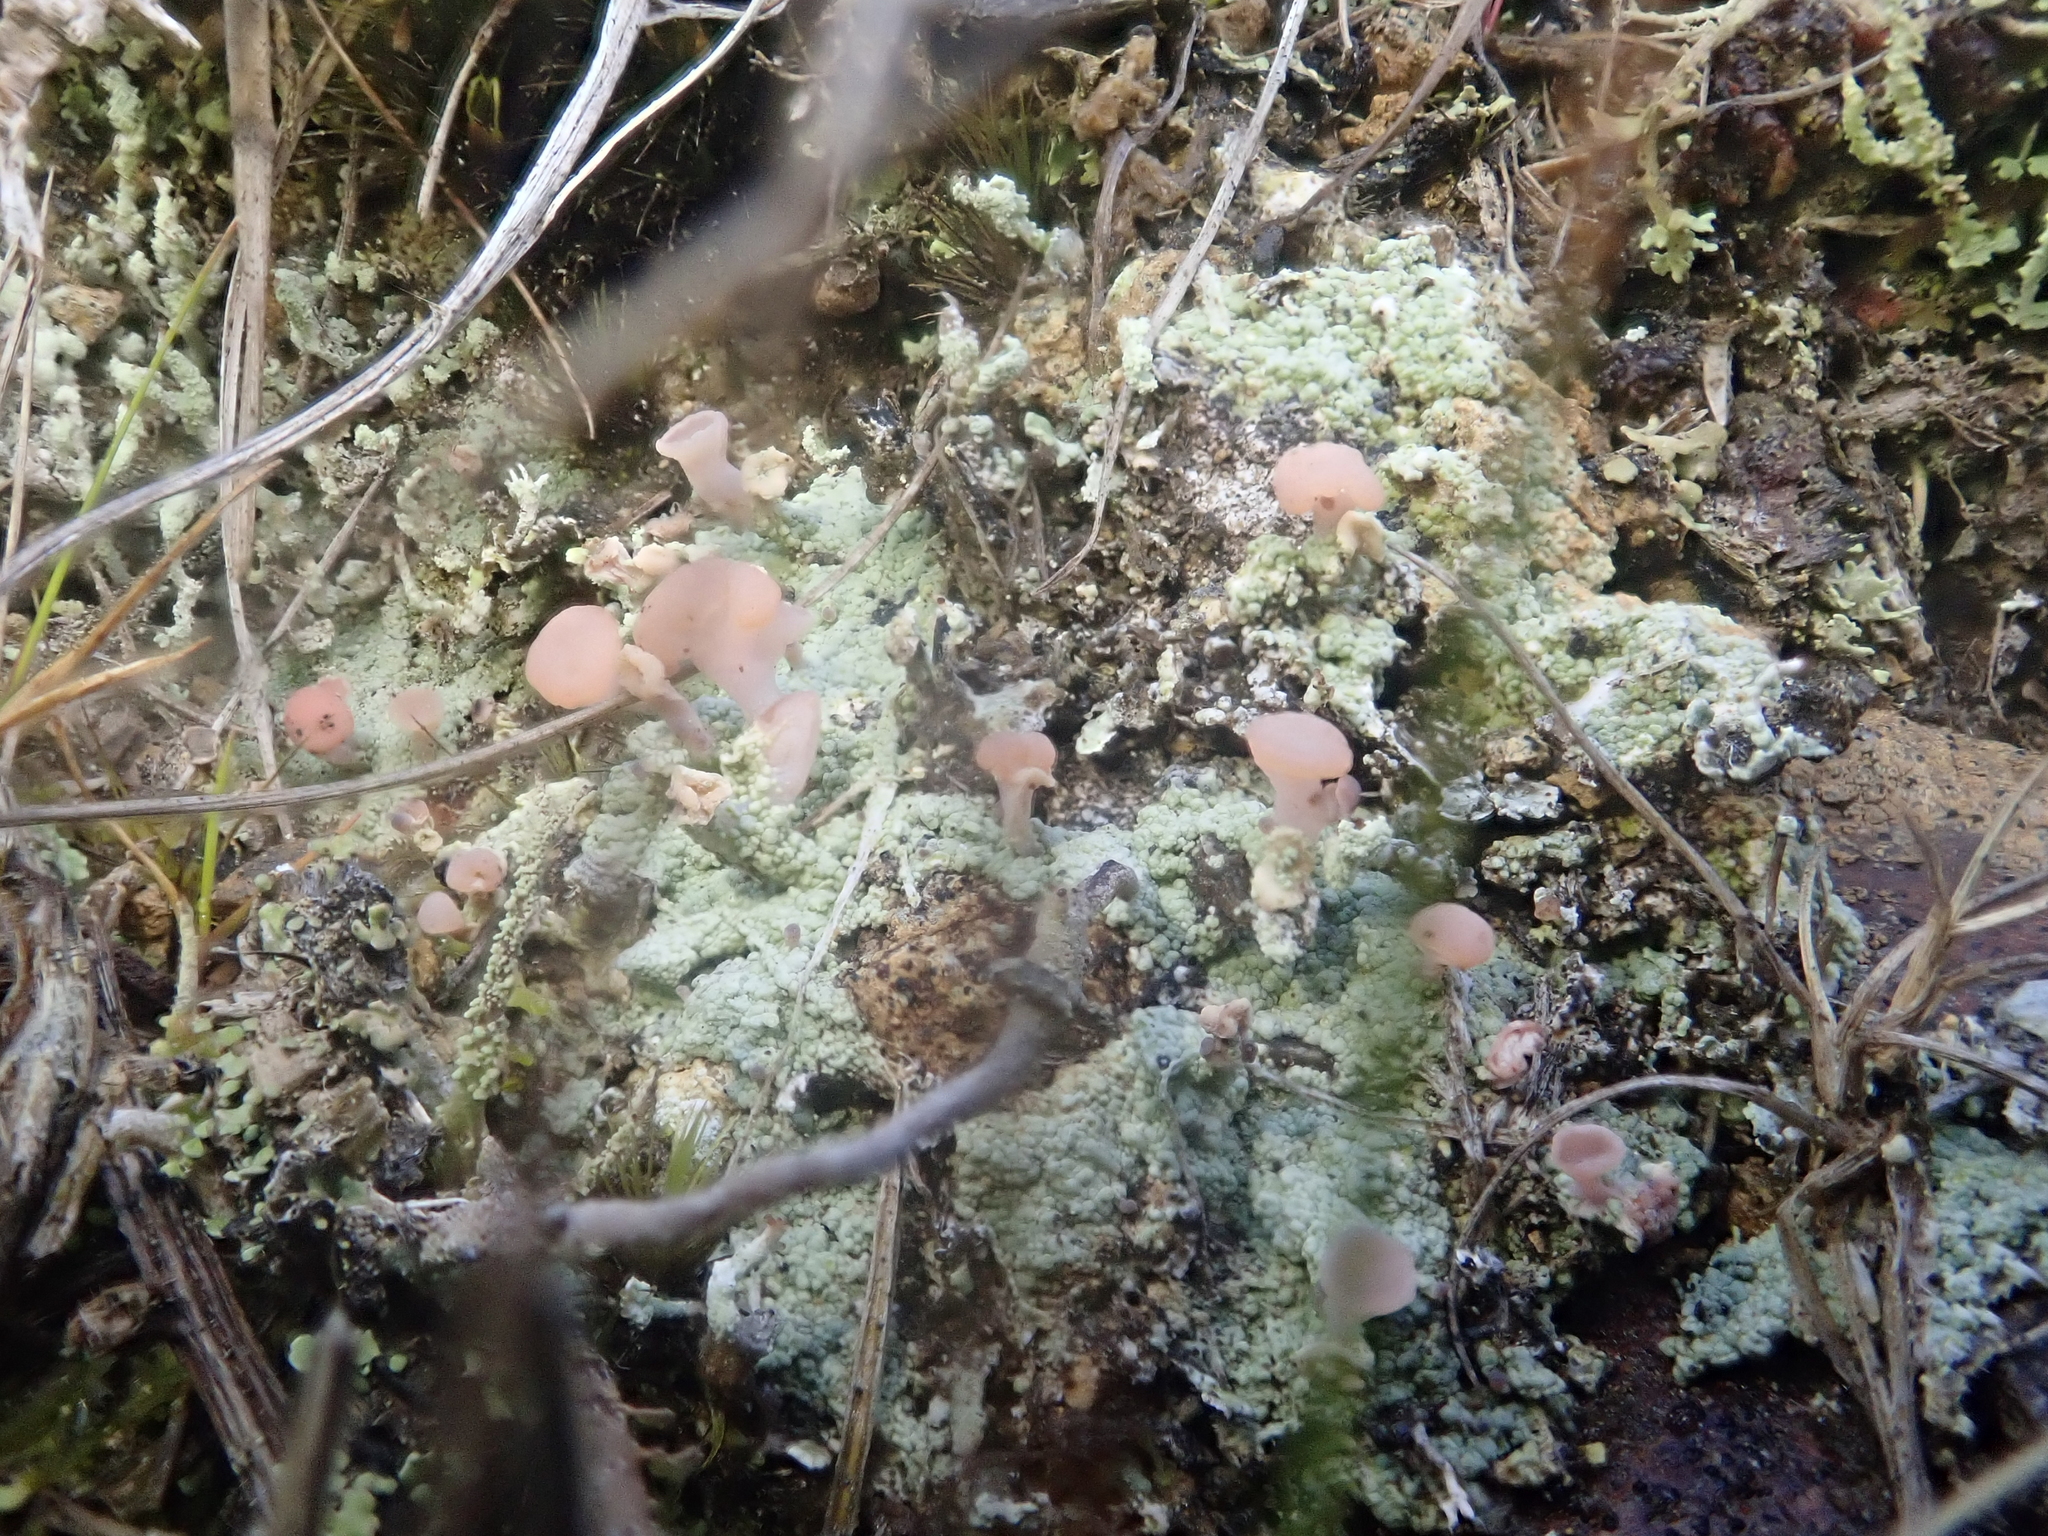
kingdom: Fungi
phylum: Ascomycota
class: Lecanoromycetes
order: Baeomycetales
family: Baeomycetaceae
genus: Baeomyces
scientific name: Baeomyces heteromorphus
